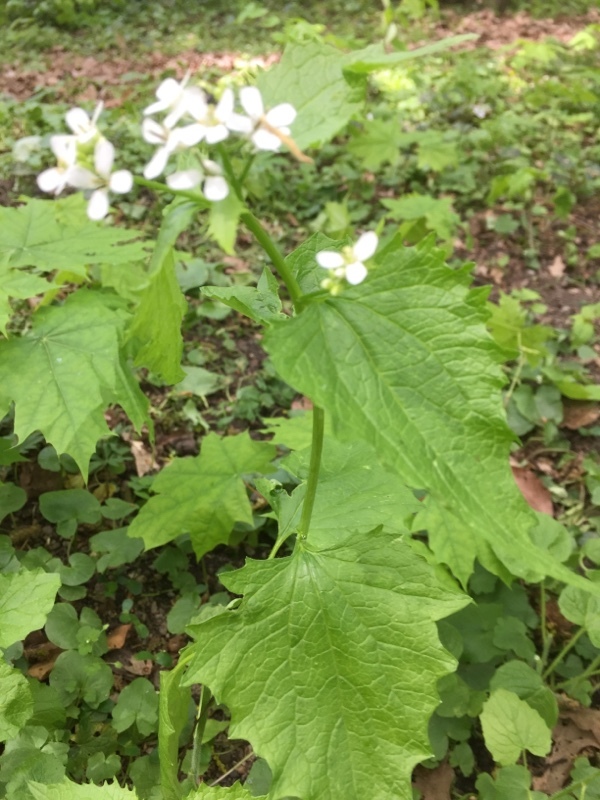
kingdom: Plantae
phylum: Tracheophyta
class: Magnoliopsida
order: Brassicales
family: Brassicaceae
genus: Alliaria
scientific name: Alliaria petiolata
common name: Garlic mustard
